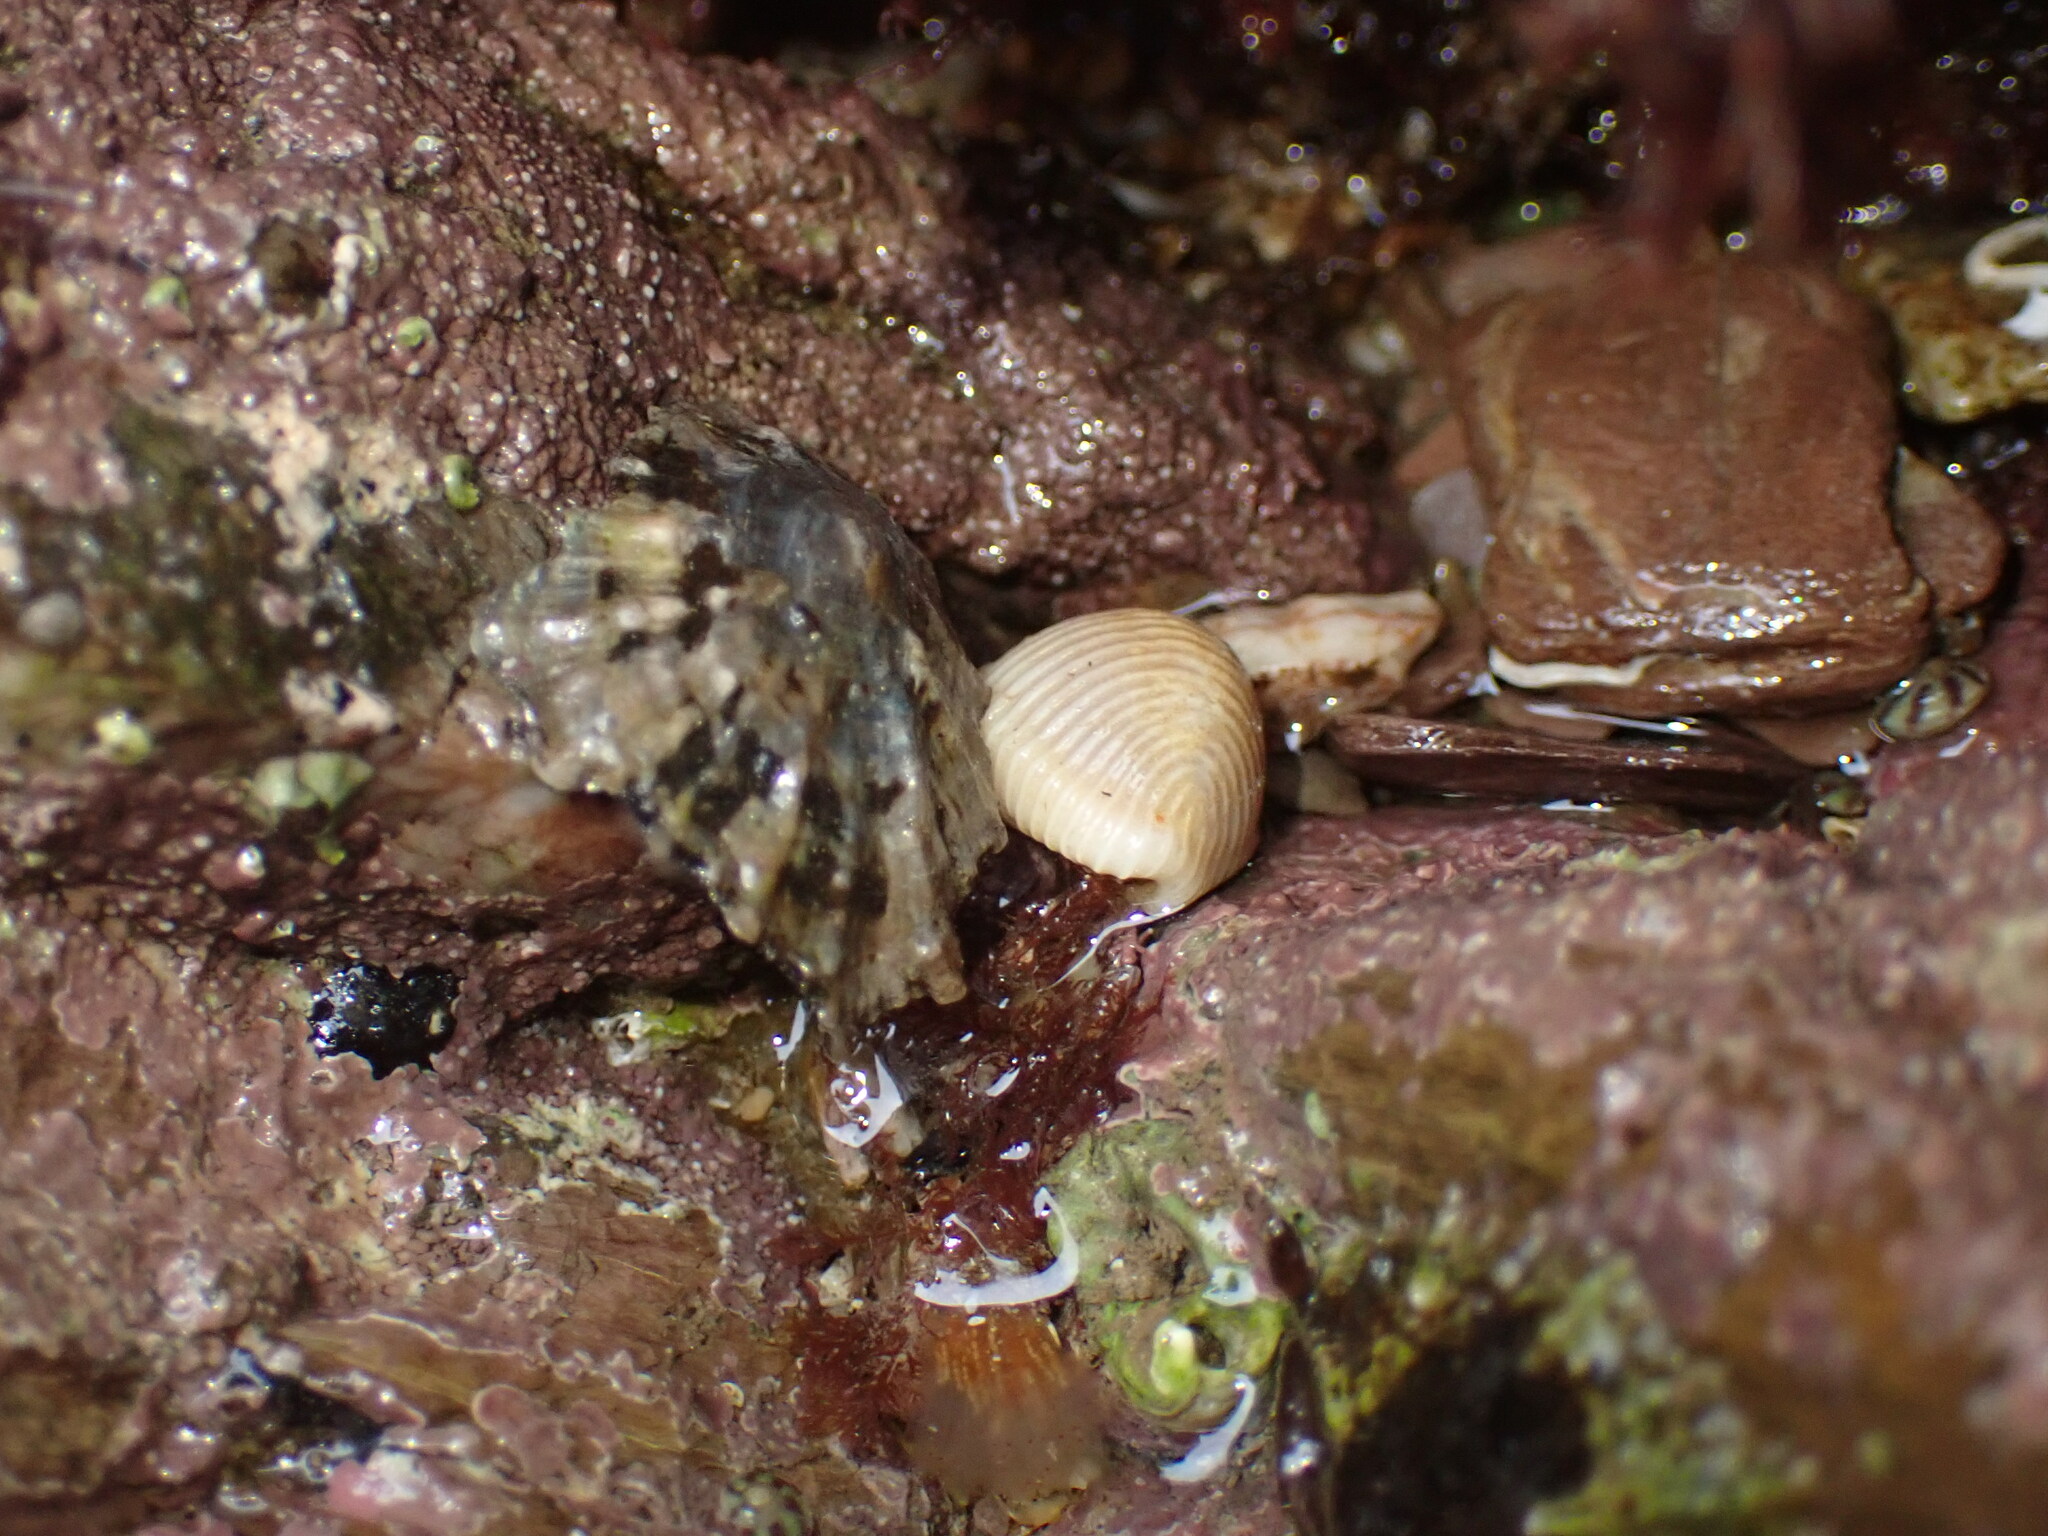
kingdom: Animalia
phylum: Mollusca
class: Gastropoda
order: Littorinimorpha
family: Triviidae
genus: Trivia
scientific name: Trivia arctica
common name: Arctic cowrie
